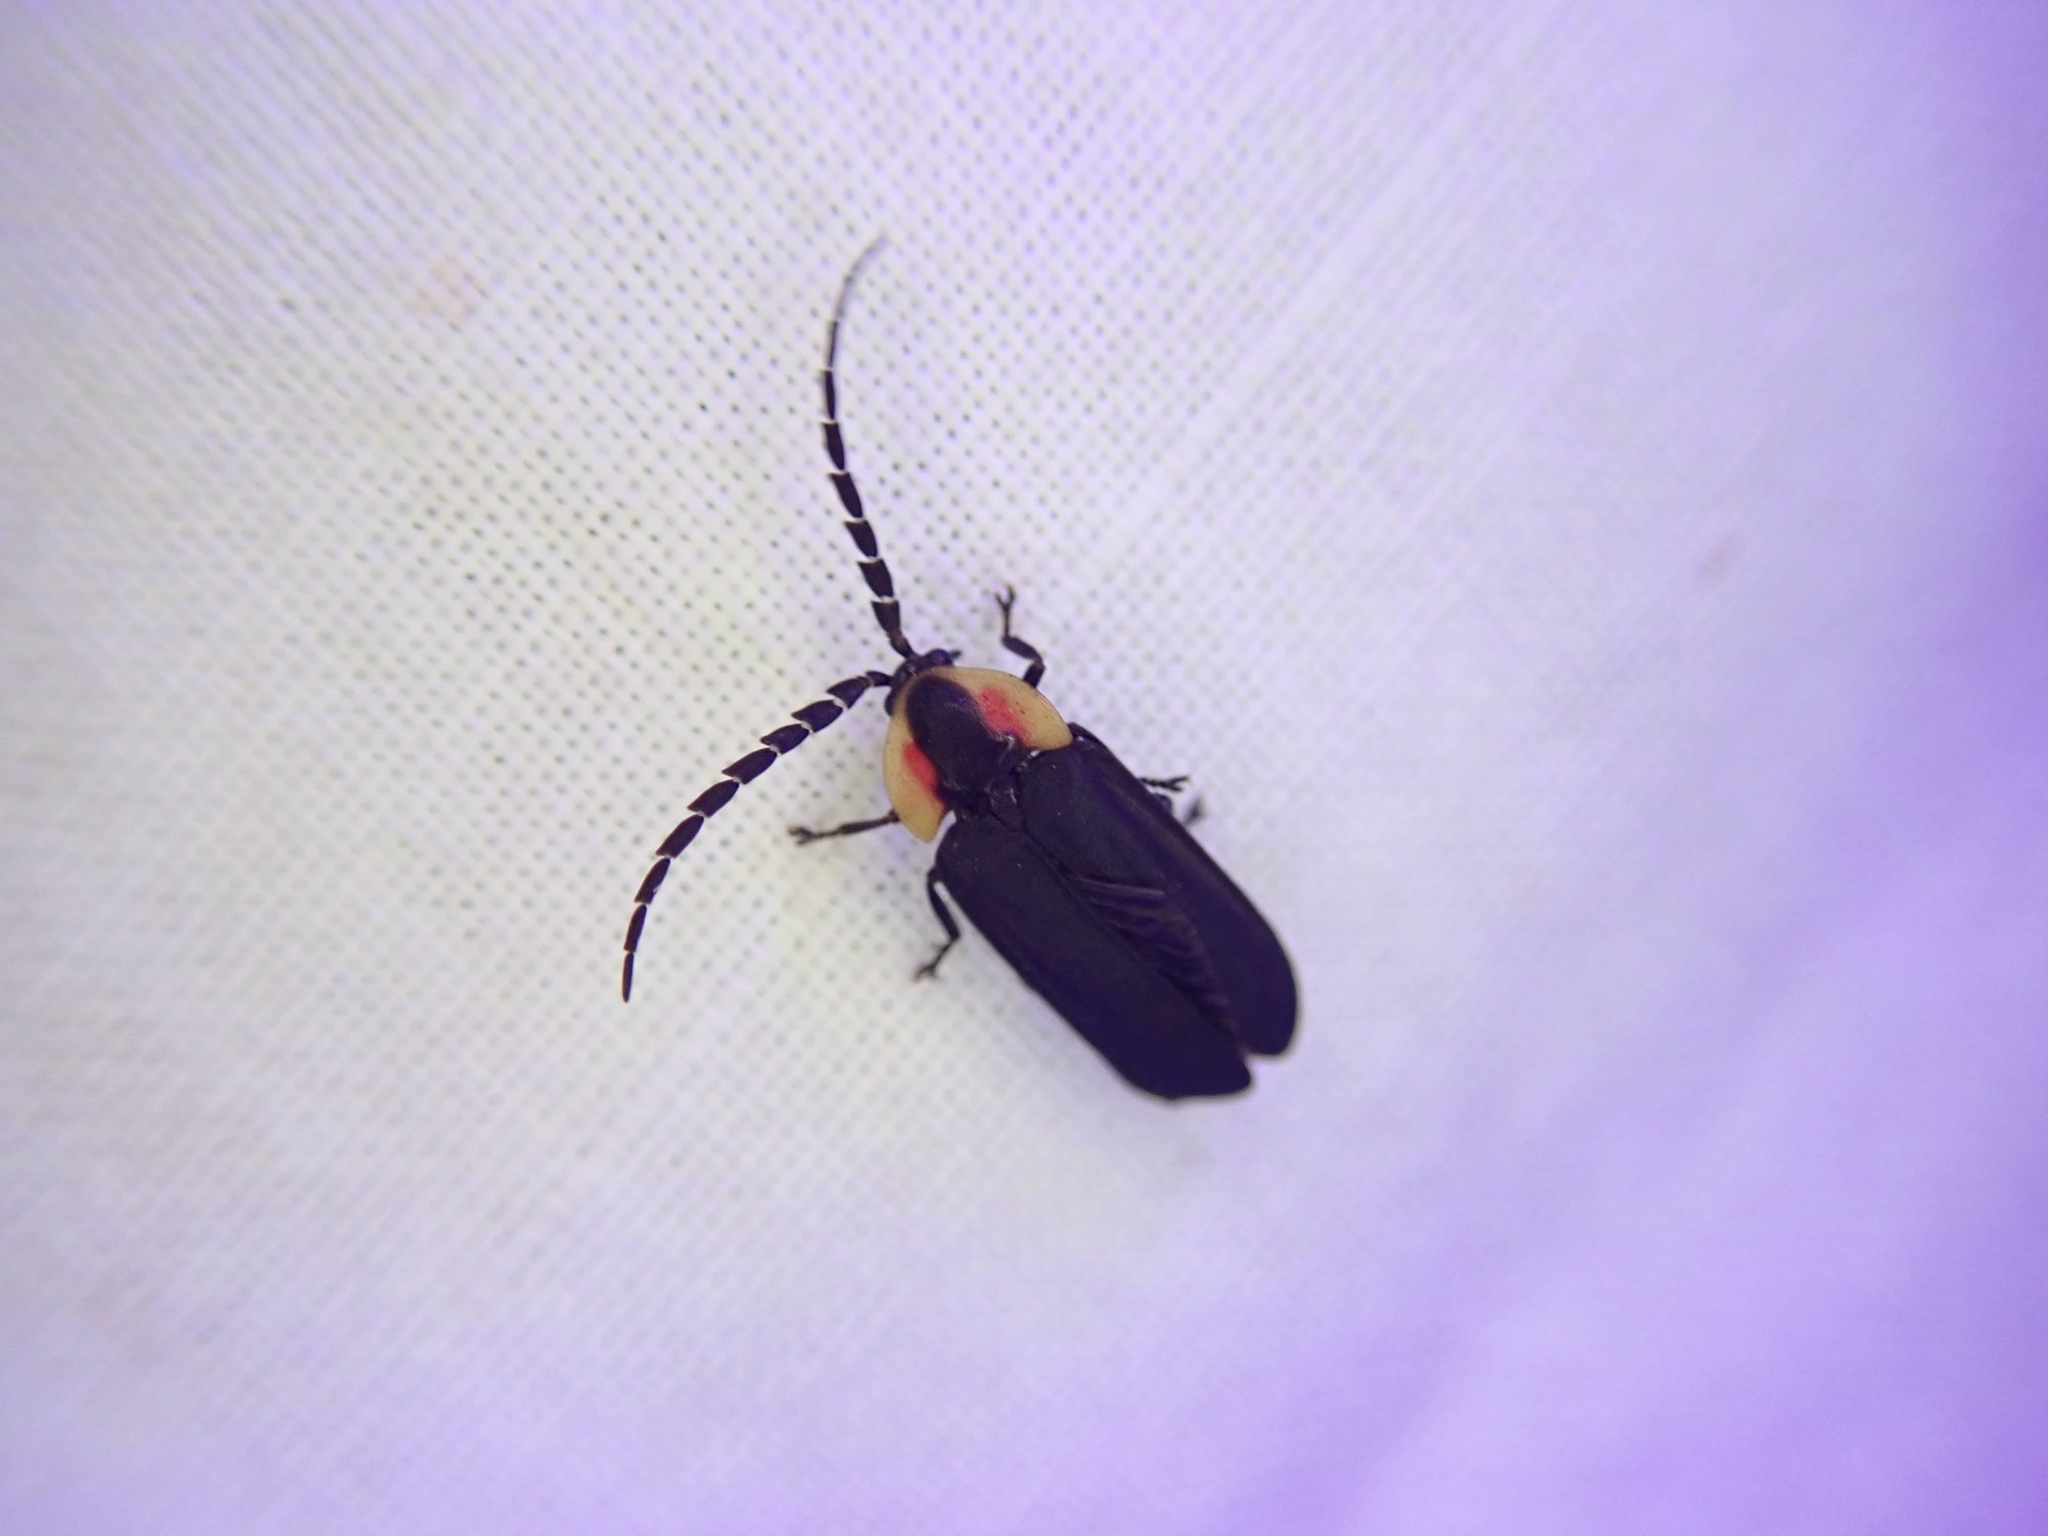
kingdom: Animalia
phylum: Arthropoda
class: Insecta
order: Coleoptera
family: Lampyridae
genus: Lucidota
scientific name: Lucidota atra
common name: Black firefly
